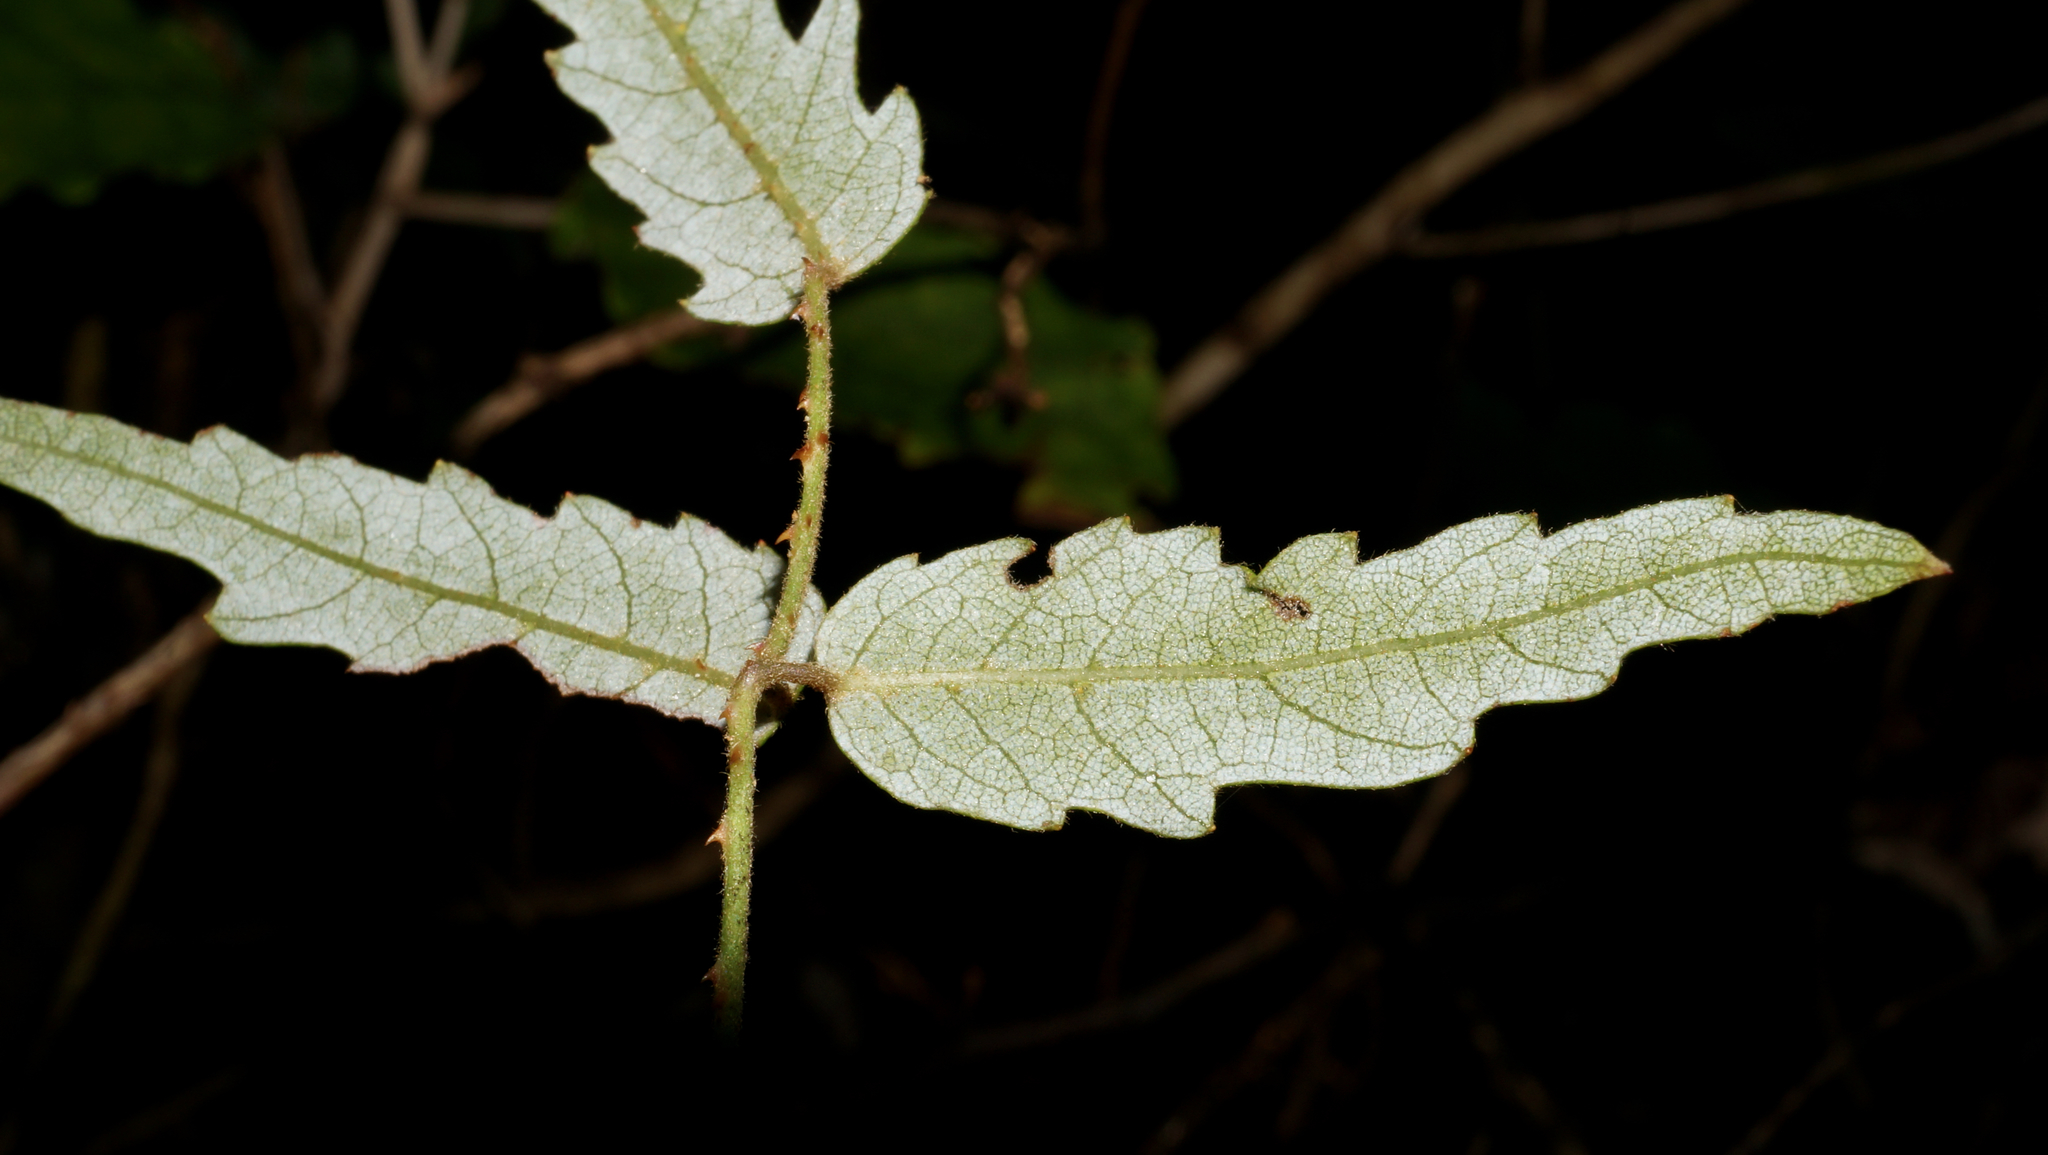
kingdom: Plantae
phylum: Tracheophyta
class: Magnoliopsida
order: Rosales
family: Rosaceae
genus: Rubus
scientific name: Rubus schmidelioides
